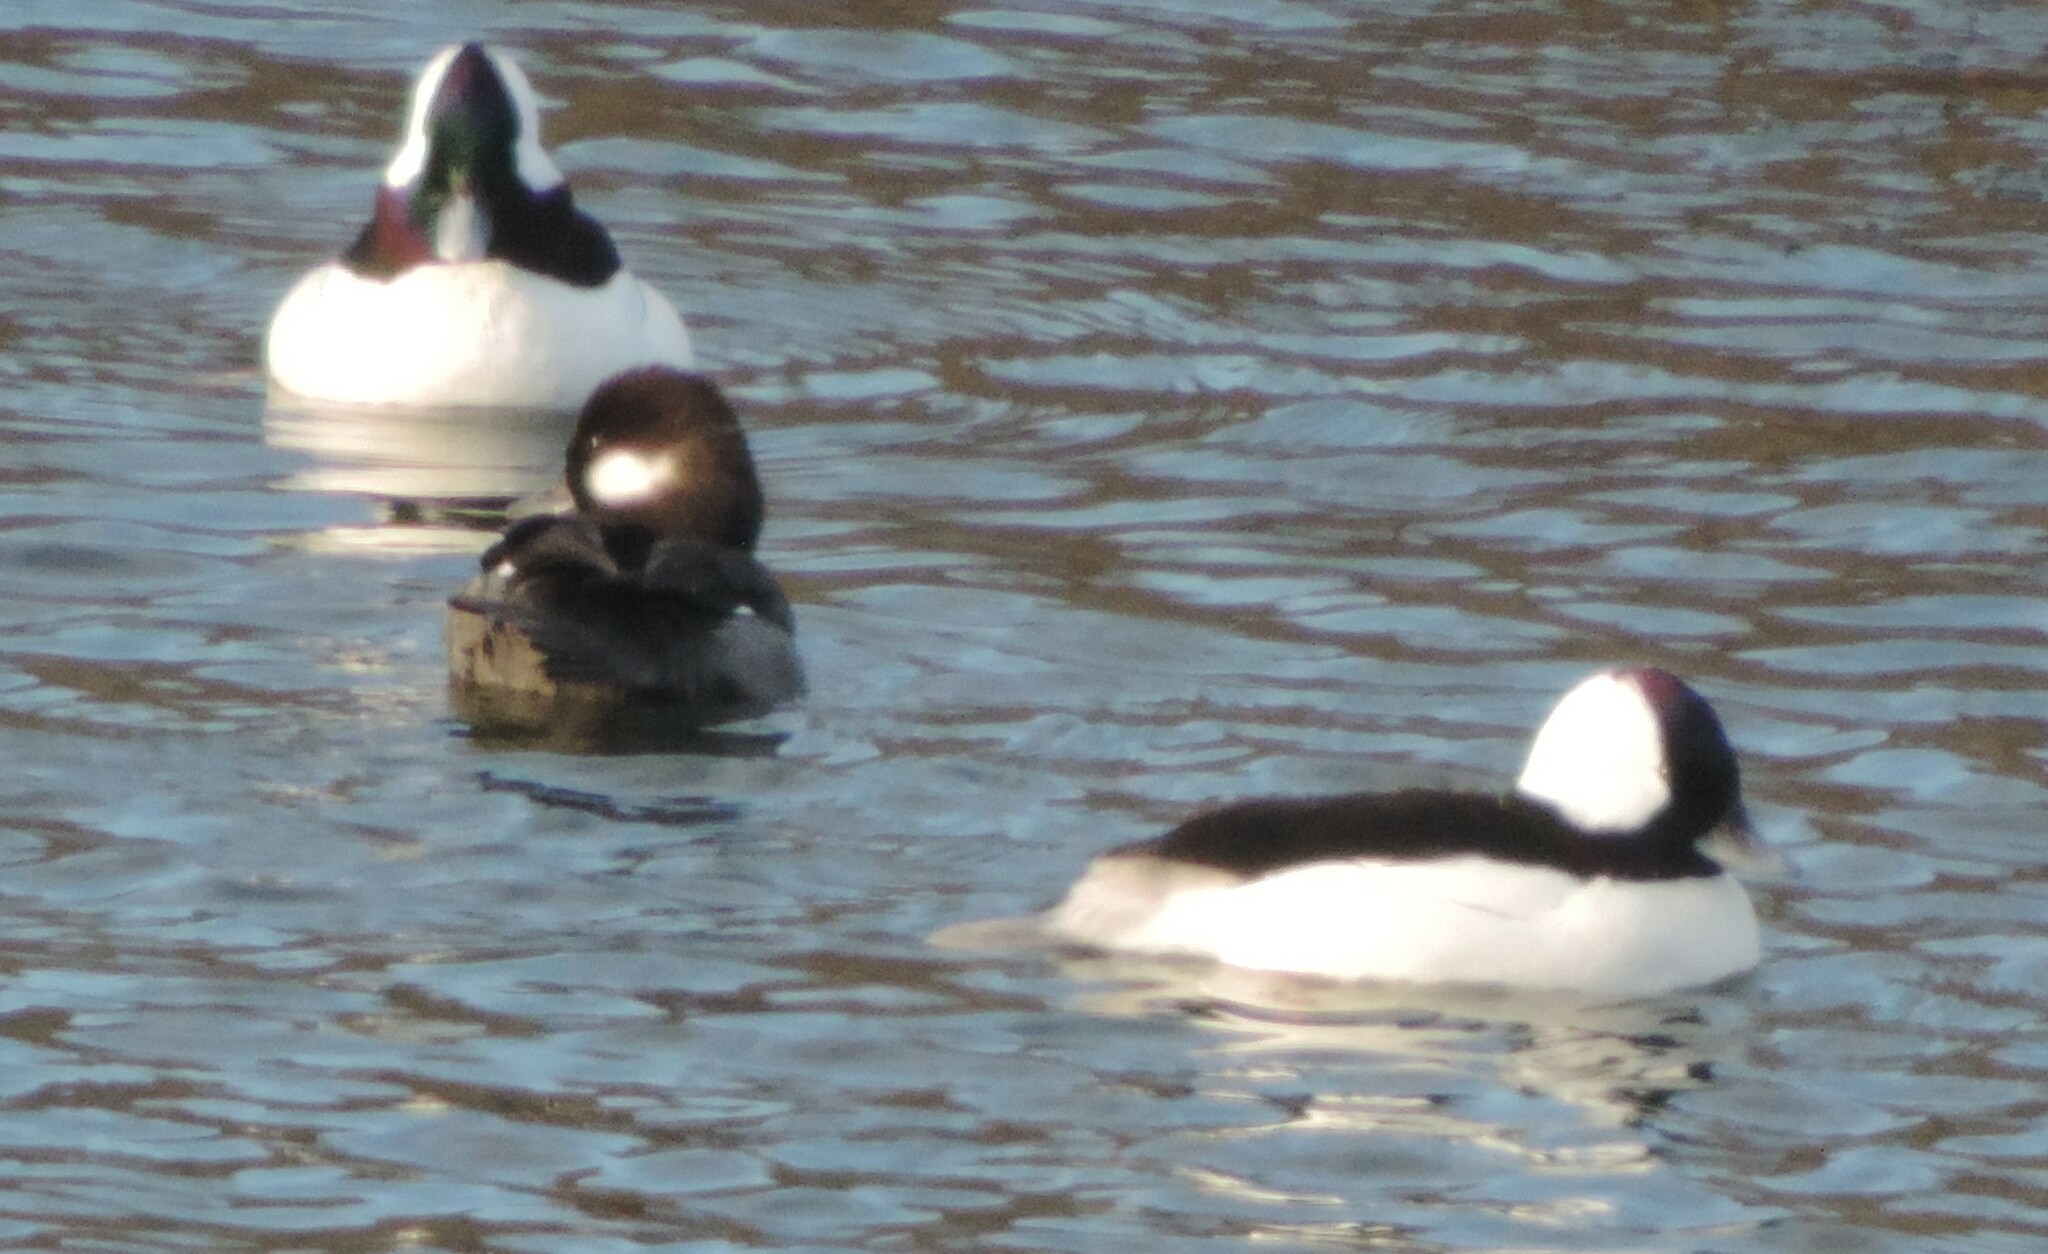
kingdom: Animalia
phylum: Chordata
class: Aves
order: Anseriformes
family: Anatidae
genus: Bucephala
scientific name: Bucephala albeola
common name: Bufflehead
